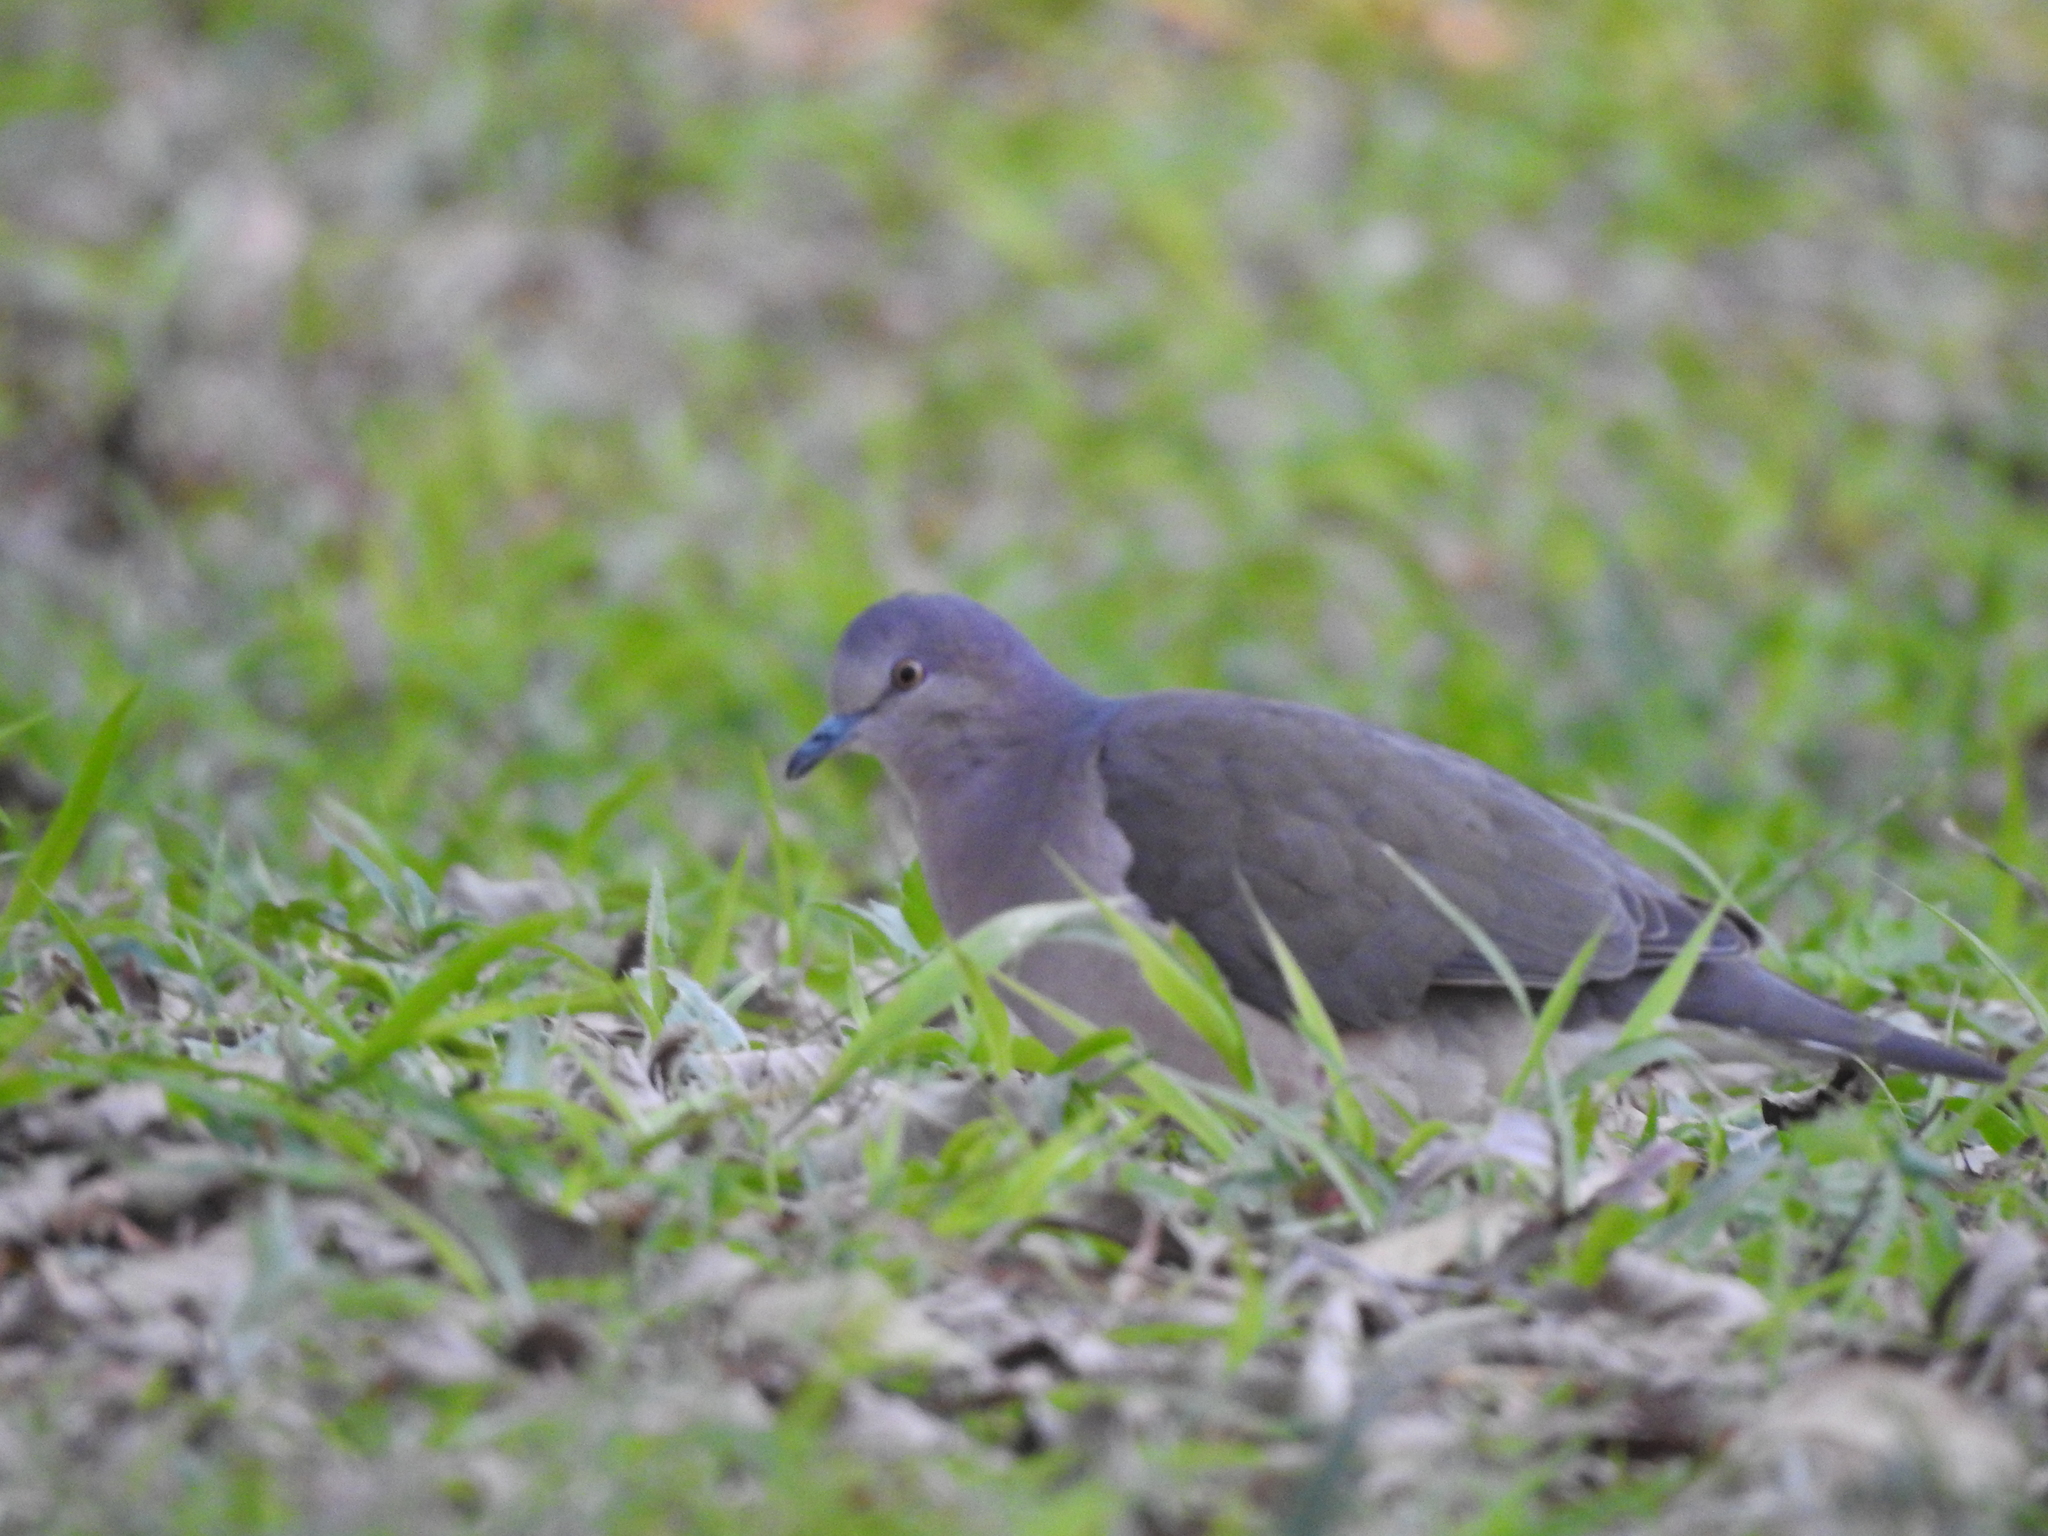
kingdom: Animalia
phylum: Chordata
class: Aves
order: Columbiformes
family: Columbidae
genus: Leptotila
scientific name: Leptotila verreauxi
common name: White-tipped dove
